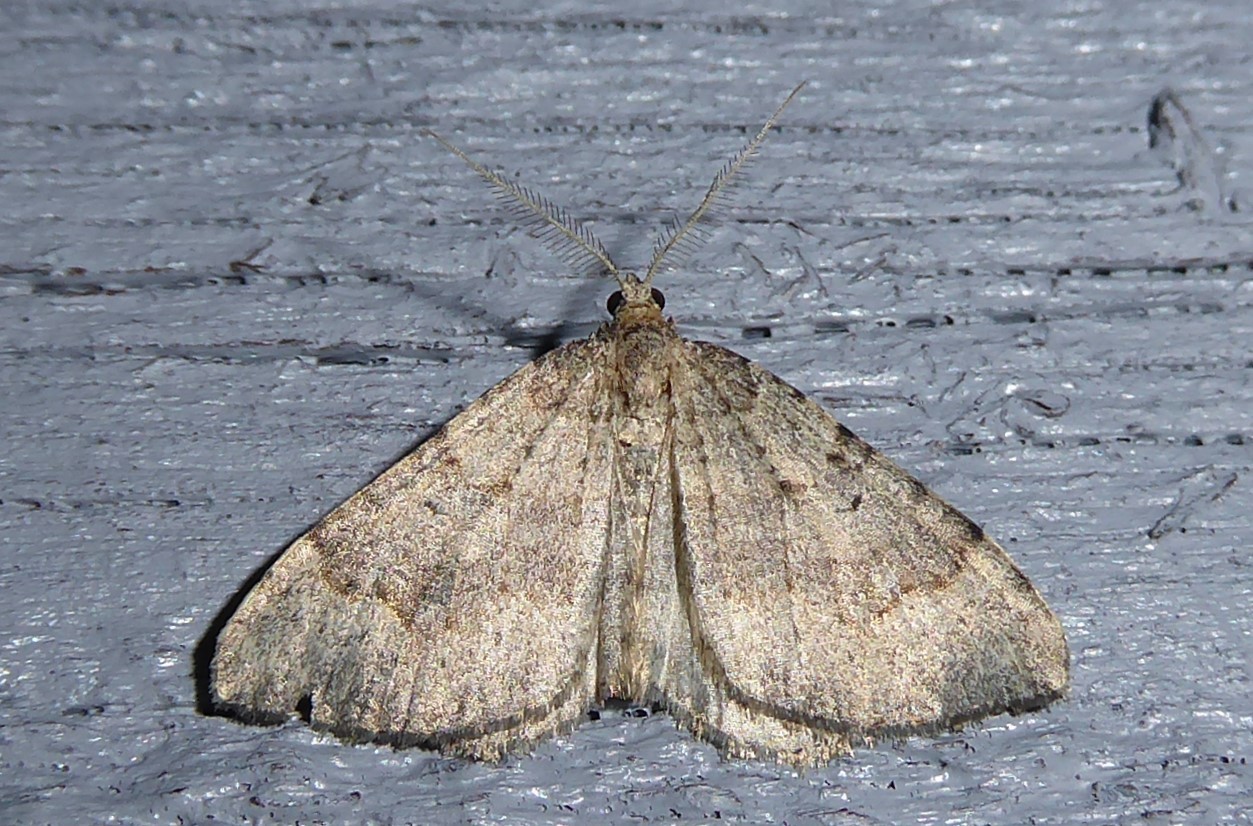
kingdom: Animalia
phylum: Arthropoda
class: Insecta
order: Lepidoptera
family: Geometridae
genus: Epyaxa
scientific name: Epyaxa rosearia
